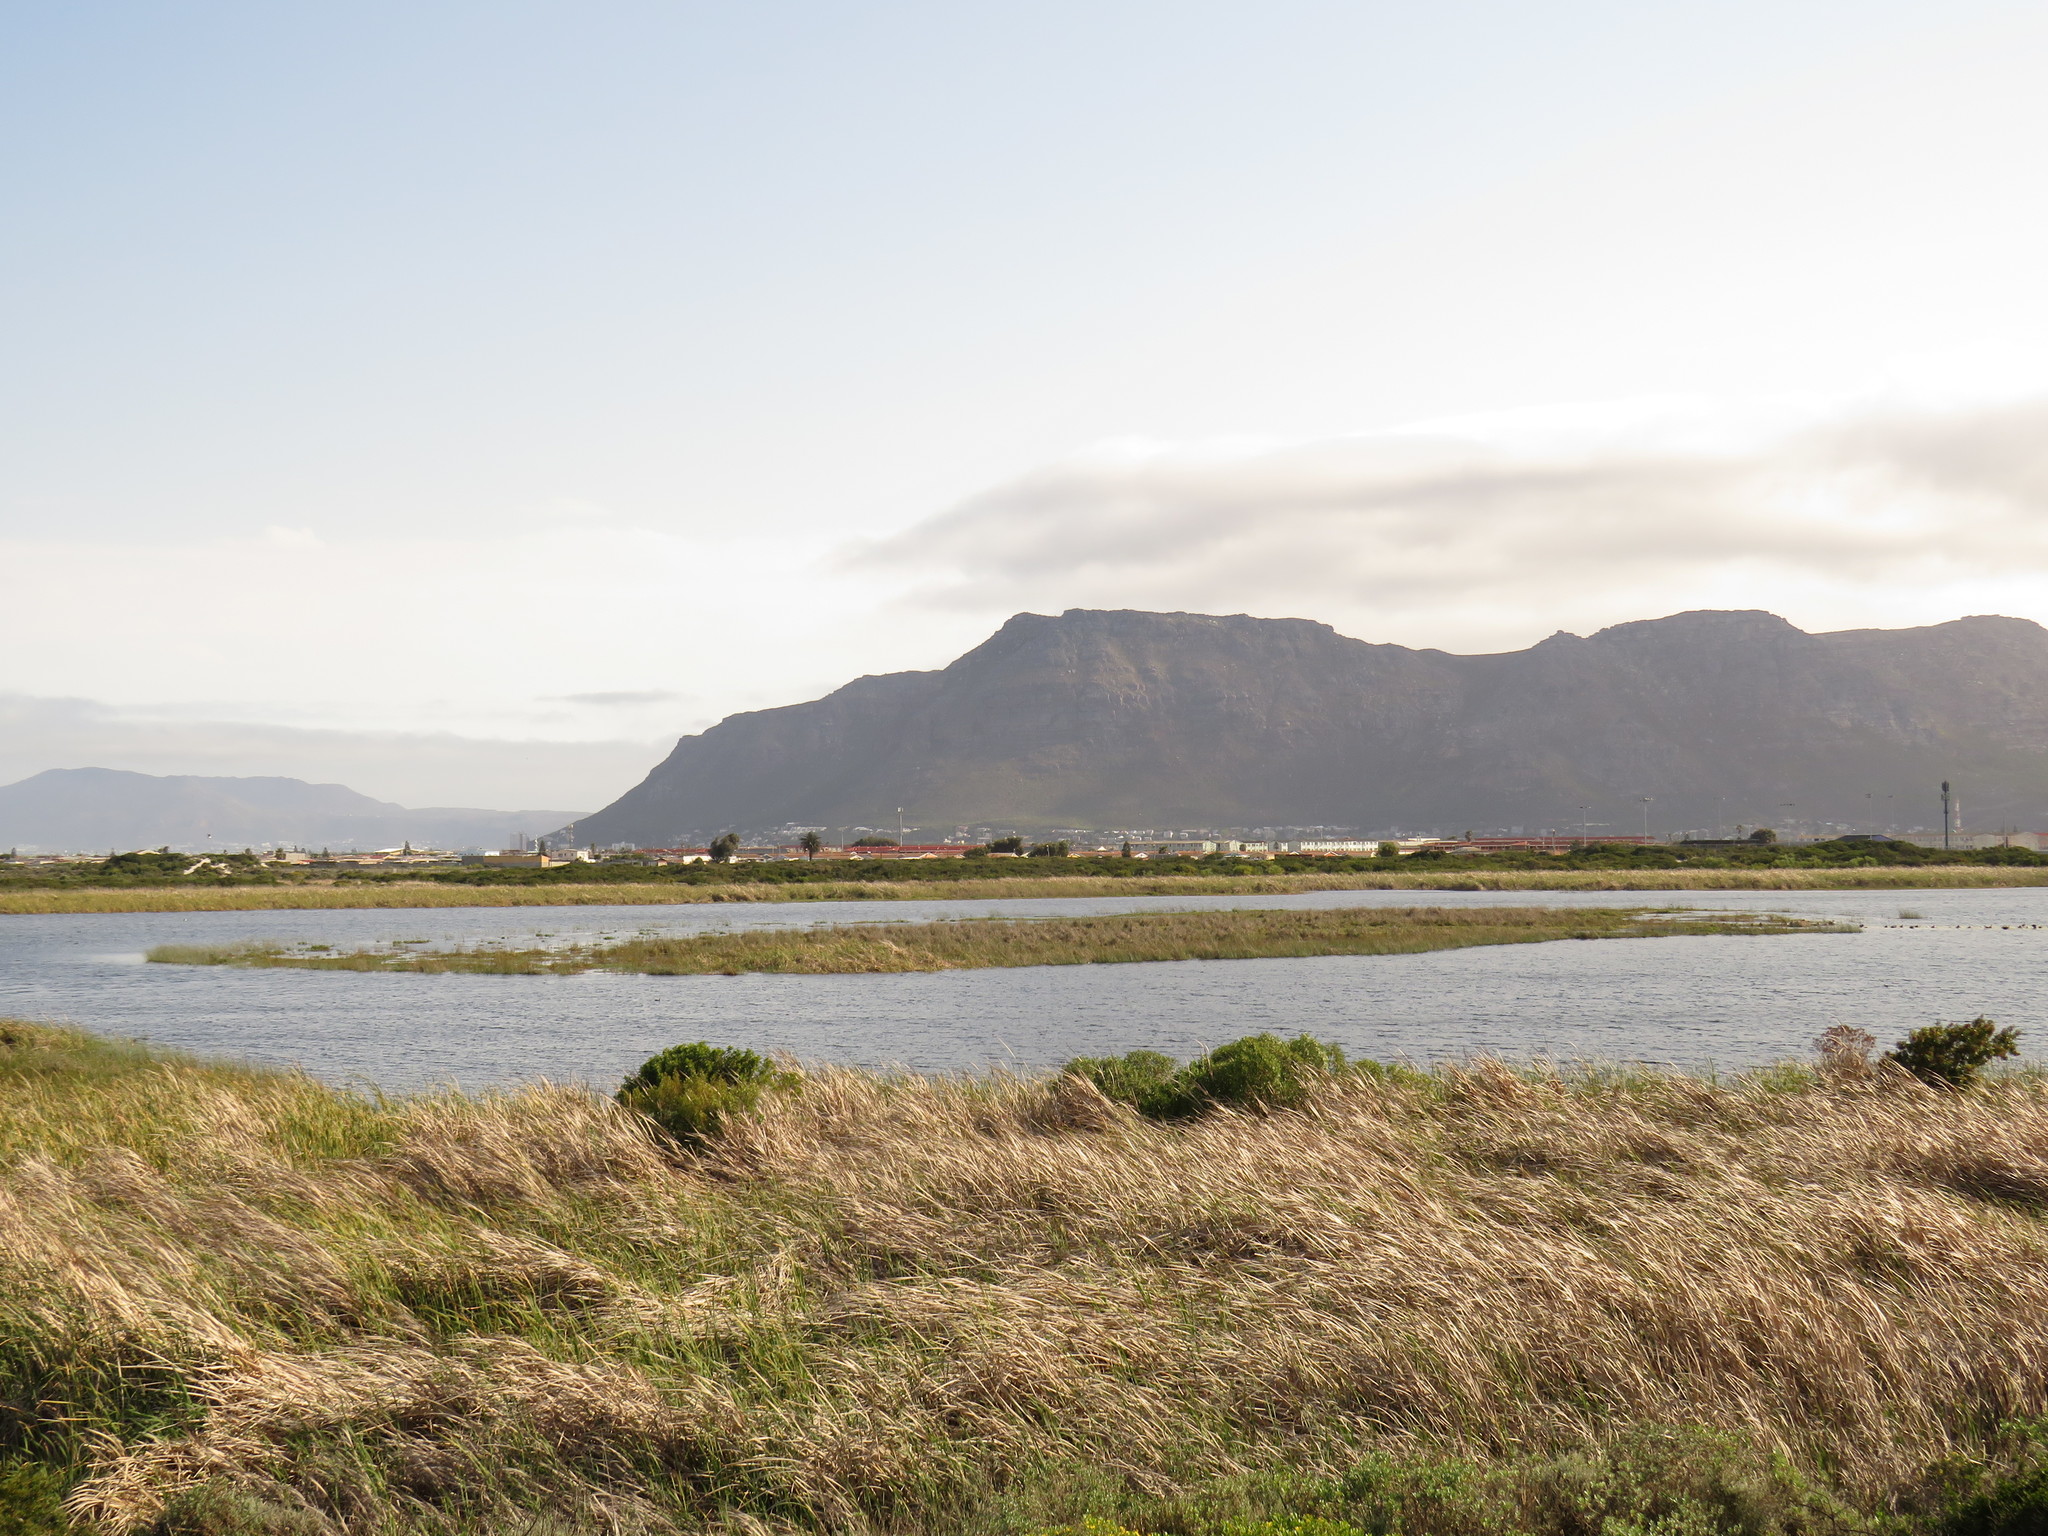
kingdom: Animalia
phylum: Chordata
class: Aves
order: Gruiformes
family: Rallidae
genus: Fulica
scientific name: Fulica cristata
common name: Red-knobbed coot
